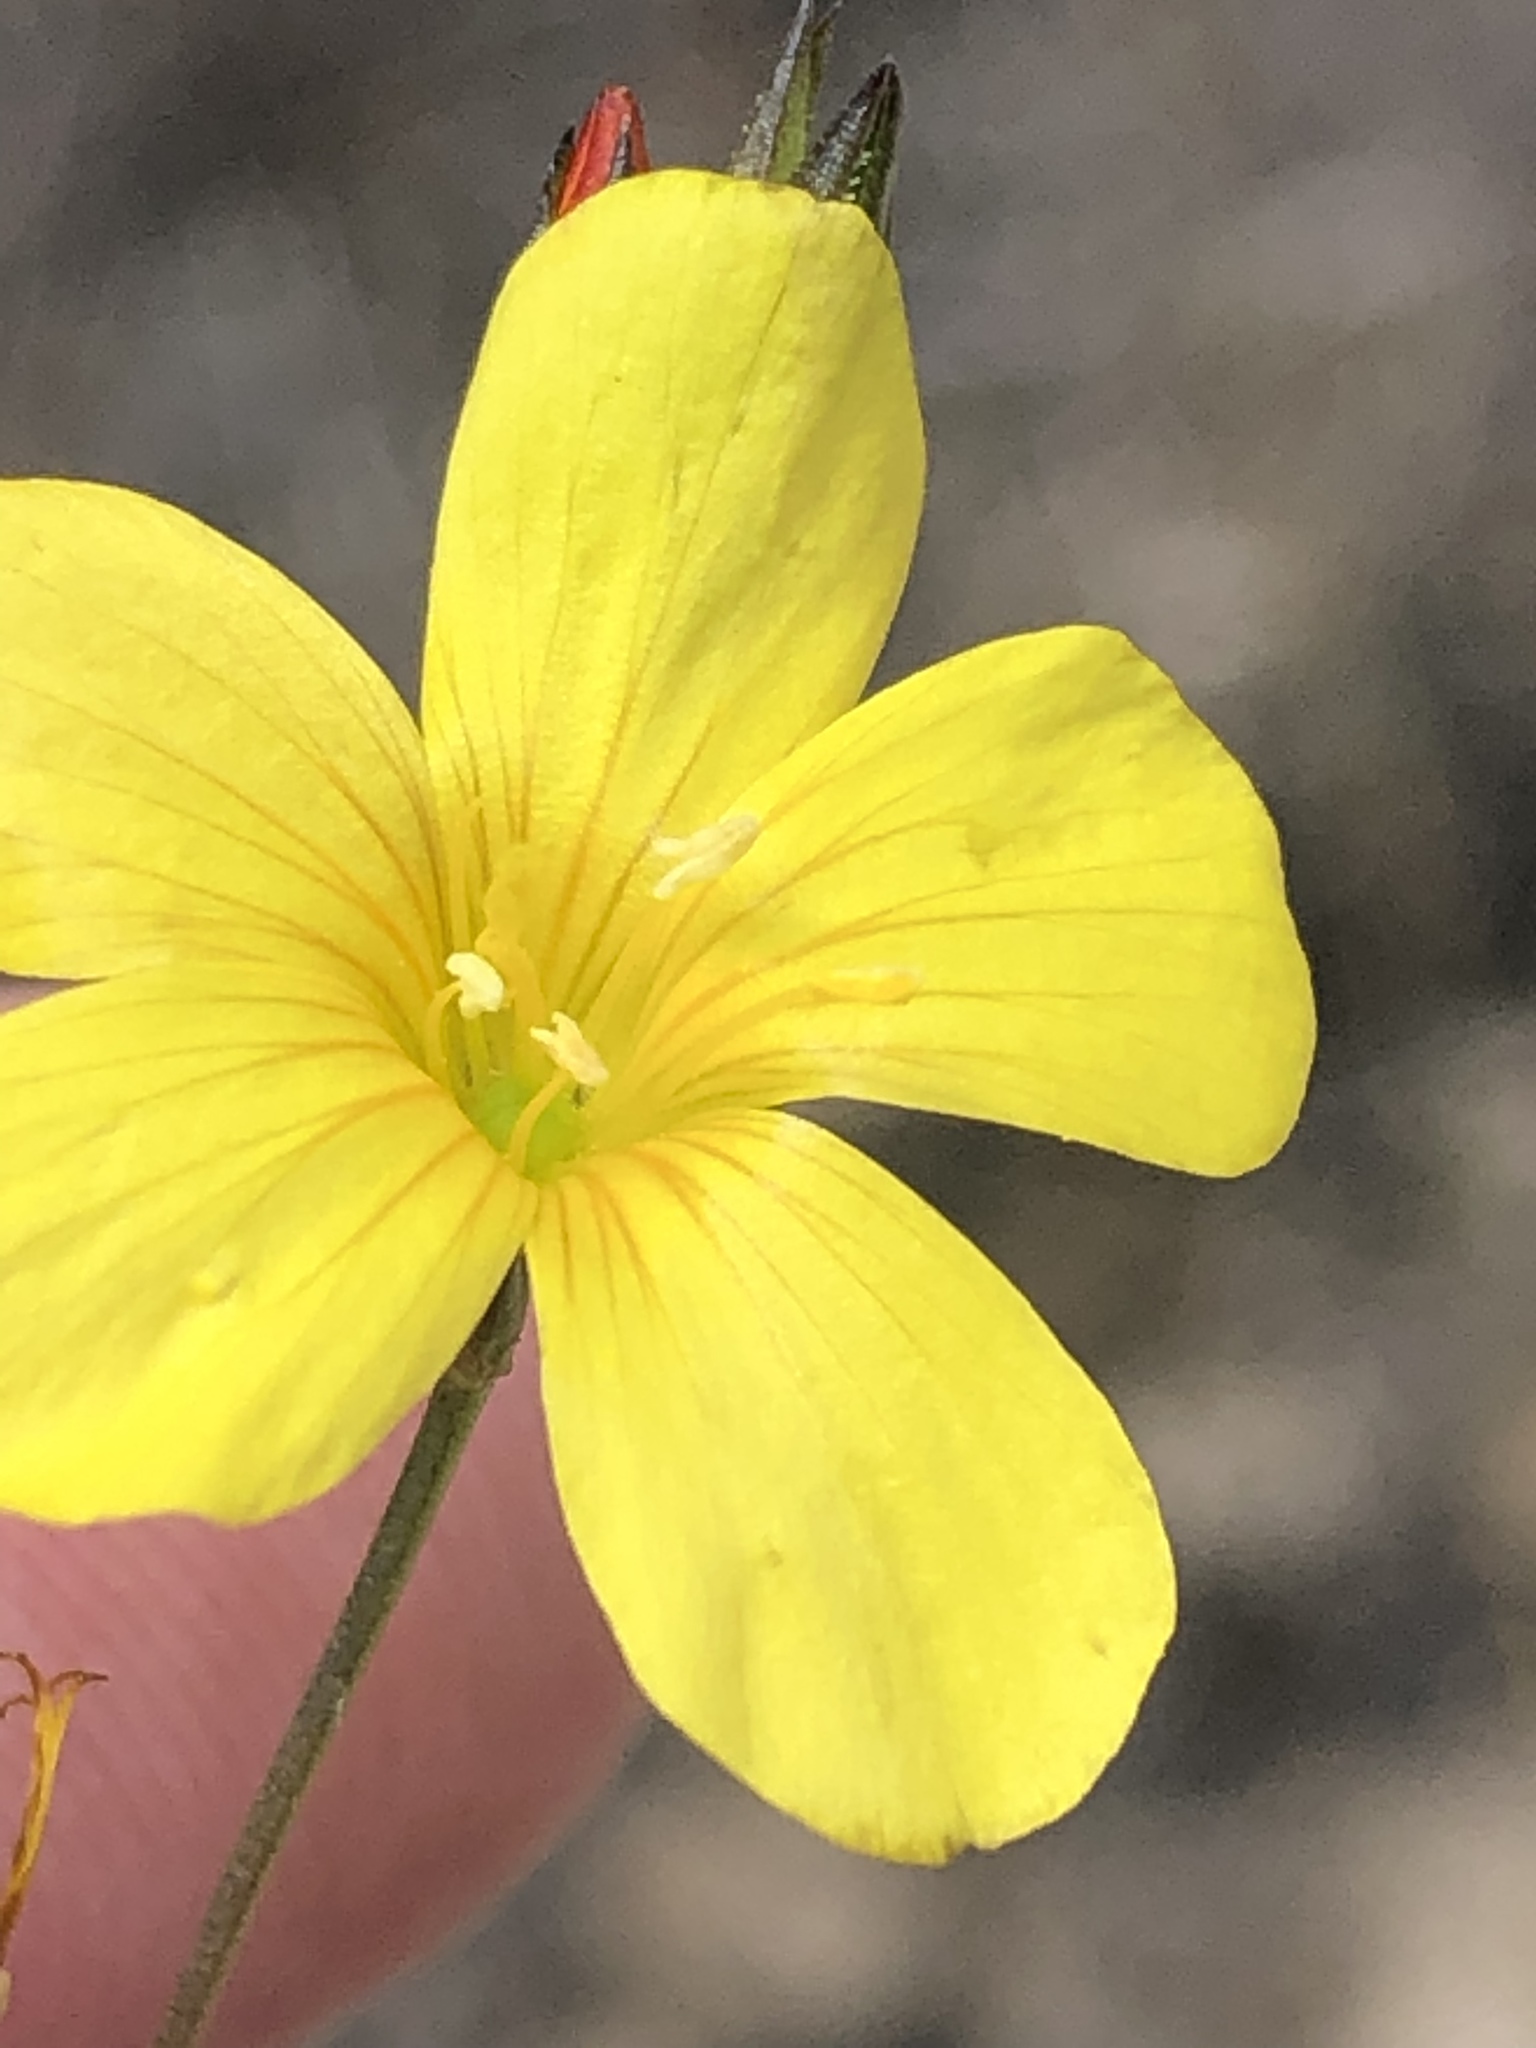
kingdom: Plantae
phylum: Tracheophyta
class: Magnoliopsida
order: Malpighiales
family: Linaceae
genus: Linum
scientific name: Linum africanum
